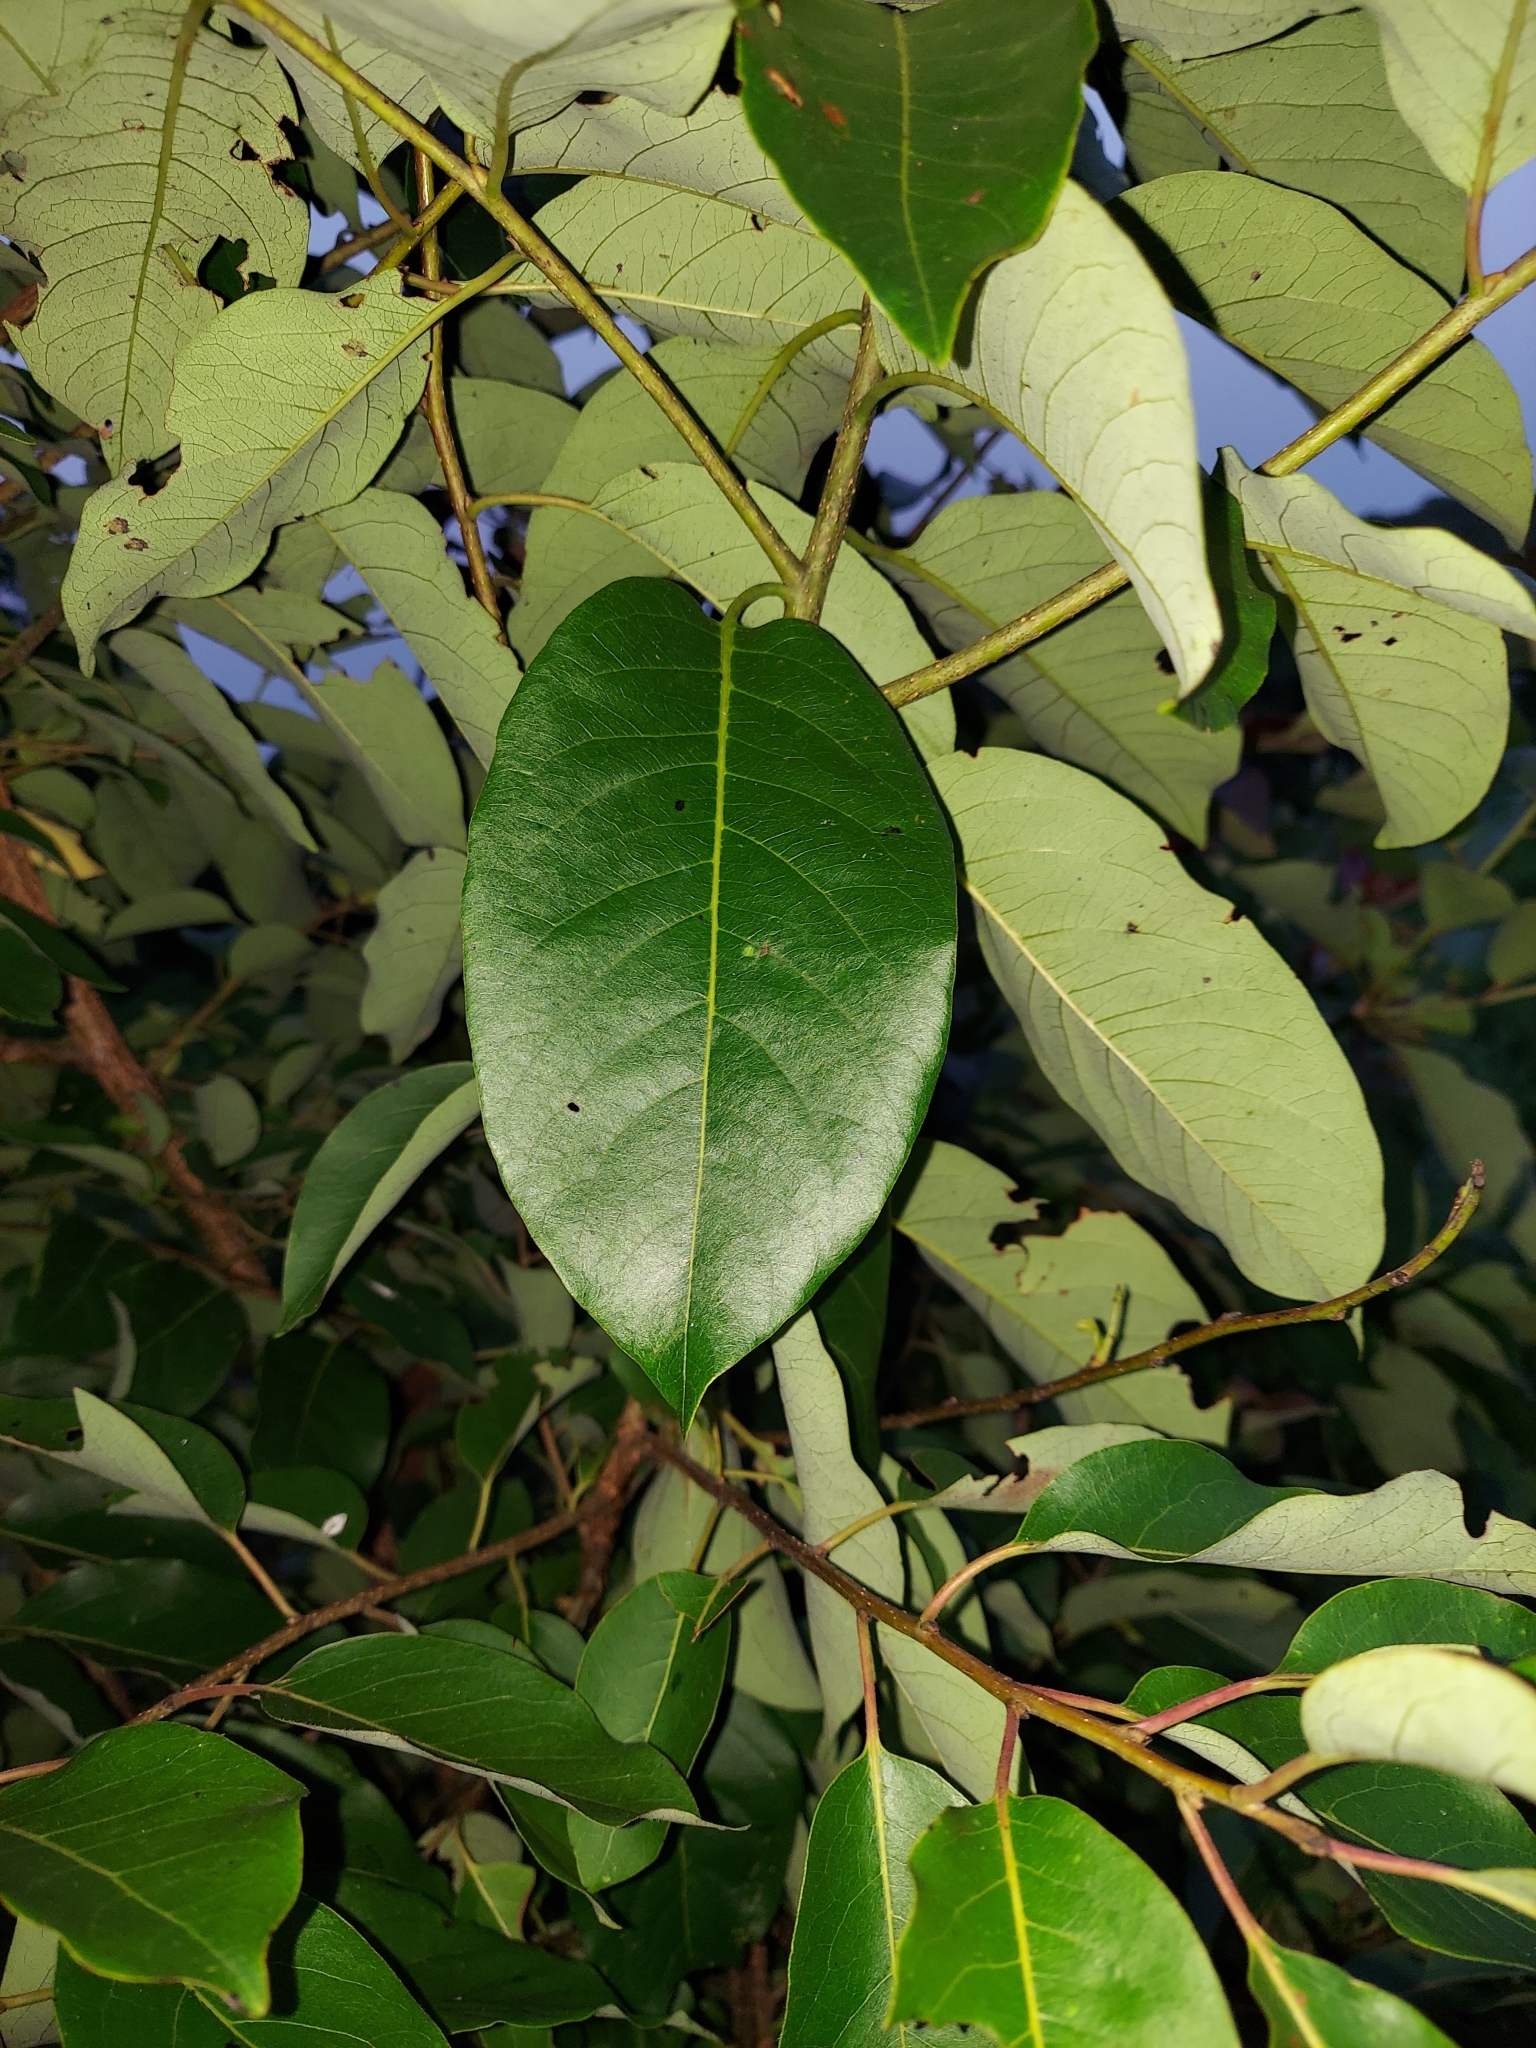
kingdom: Plantae
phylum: Tracheophyta
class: Magnoliopsida
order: Ericales
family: Ebenaceae
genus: Diospyros
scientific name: Diospyros virginiana
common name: Persimmon
